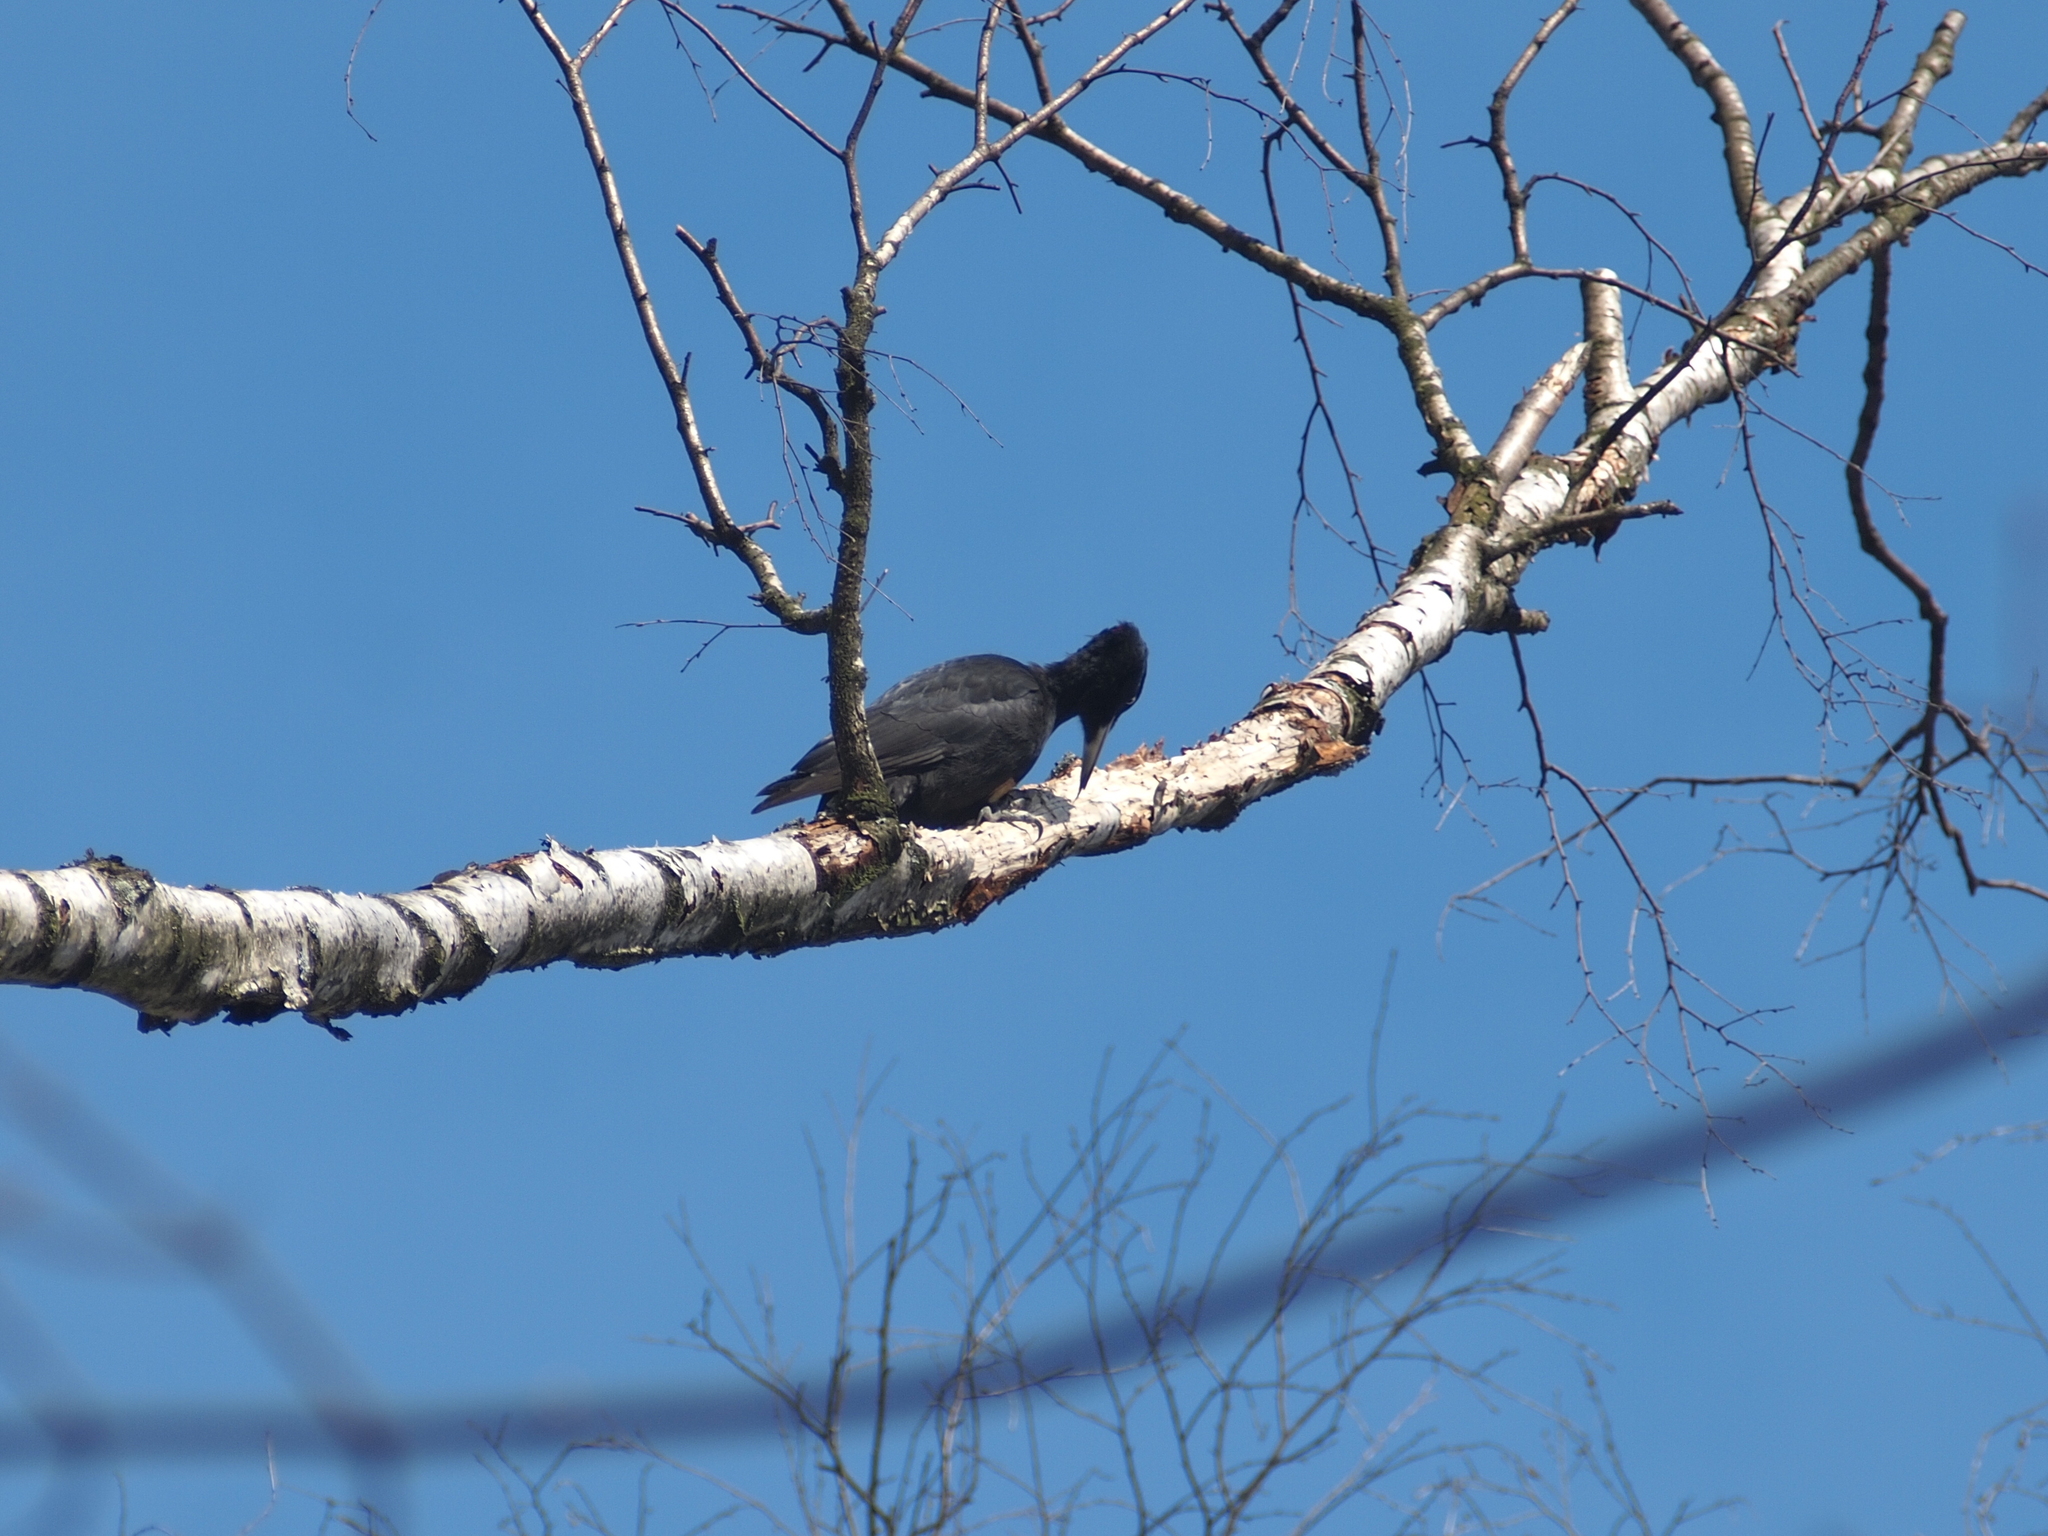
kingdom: Animalia
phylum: Chordata
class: Aves
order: Piciformes
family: Picidae
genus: Dryocopus
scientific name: Dryocopus martius
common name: Black woodpecker
